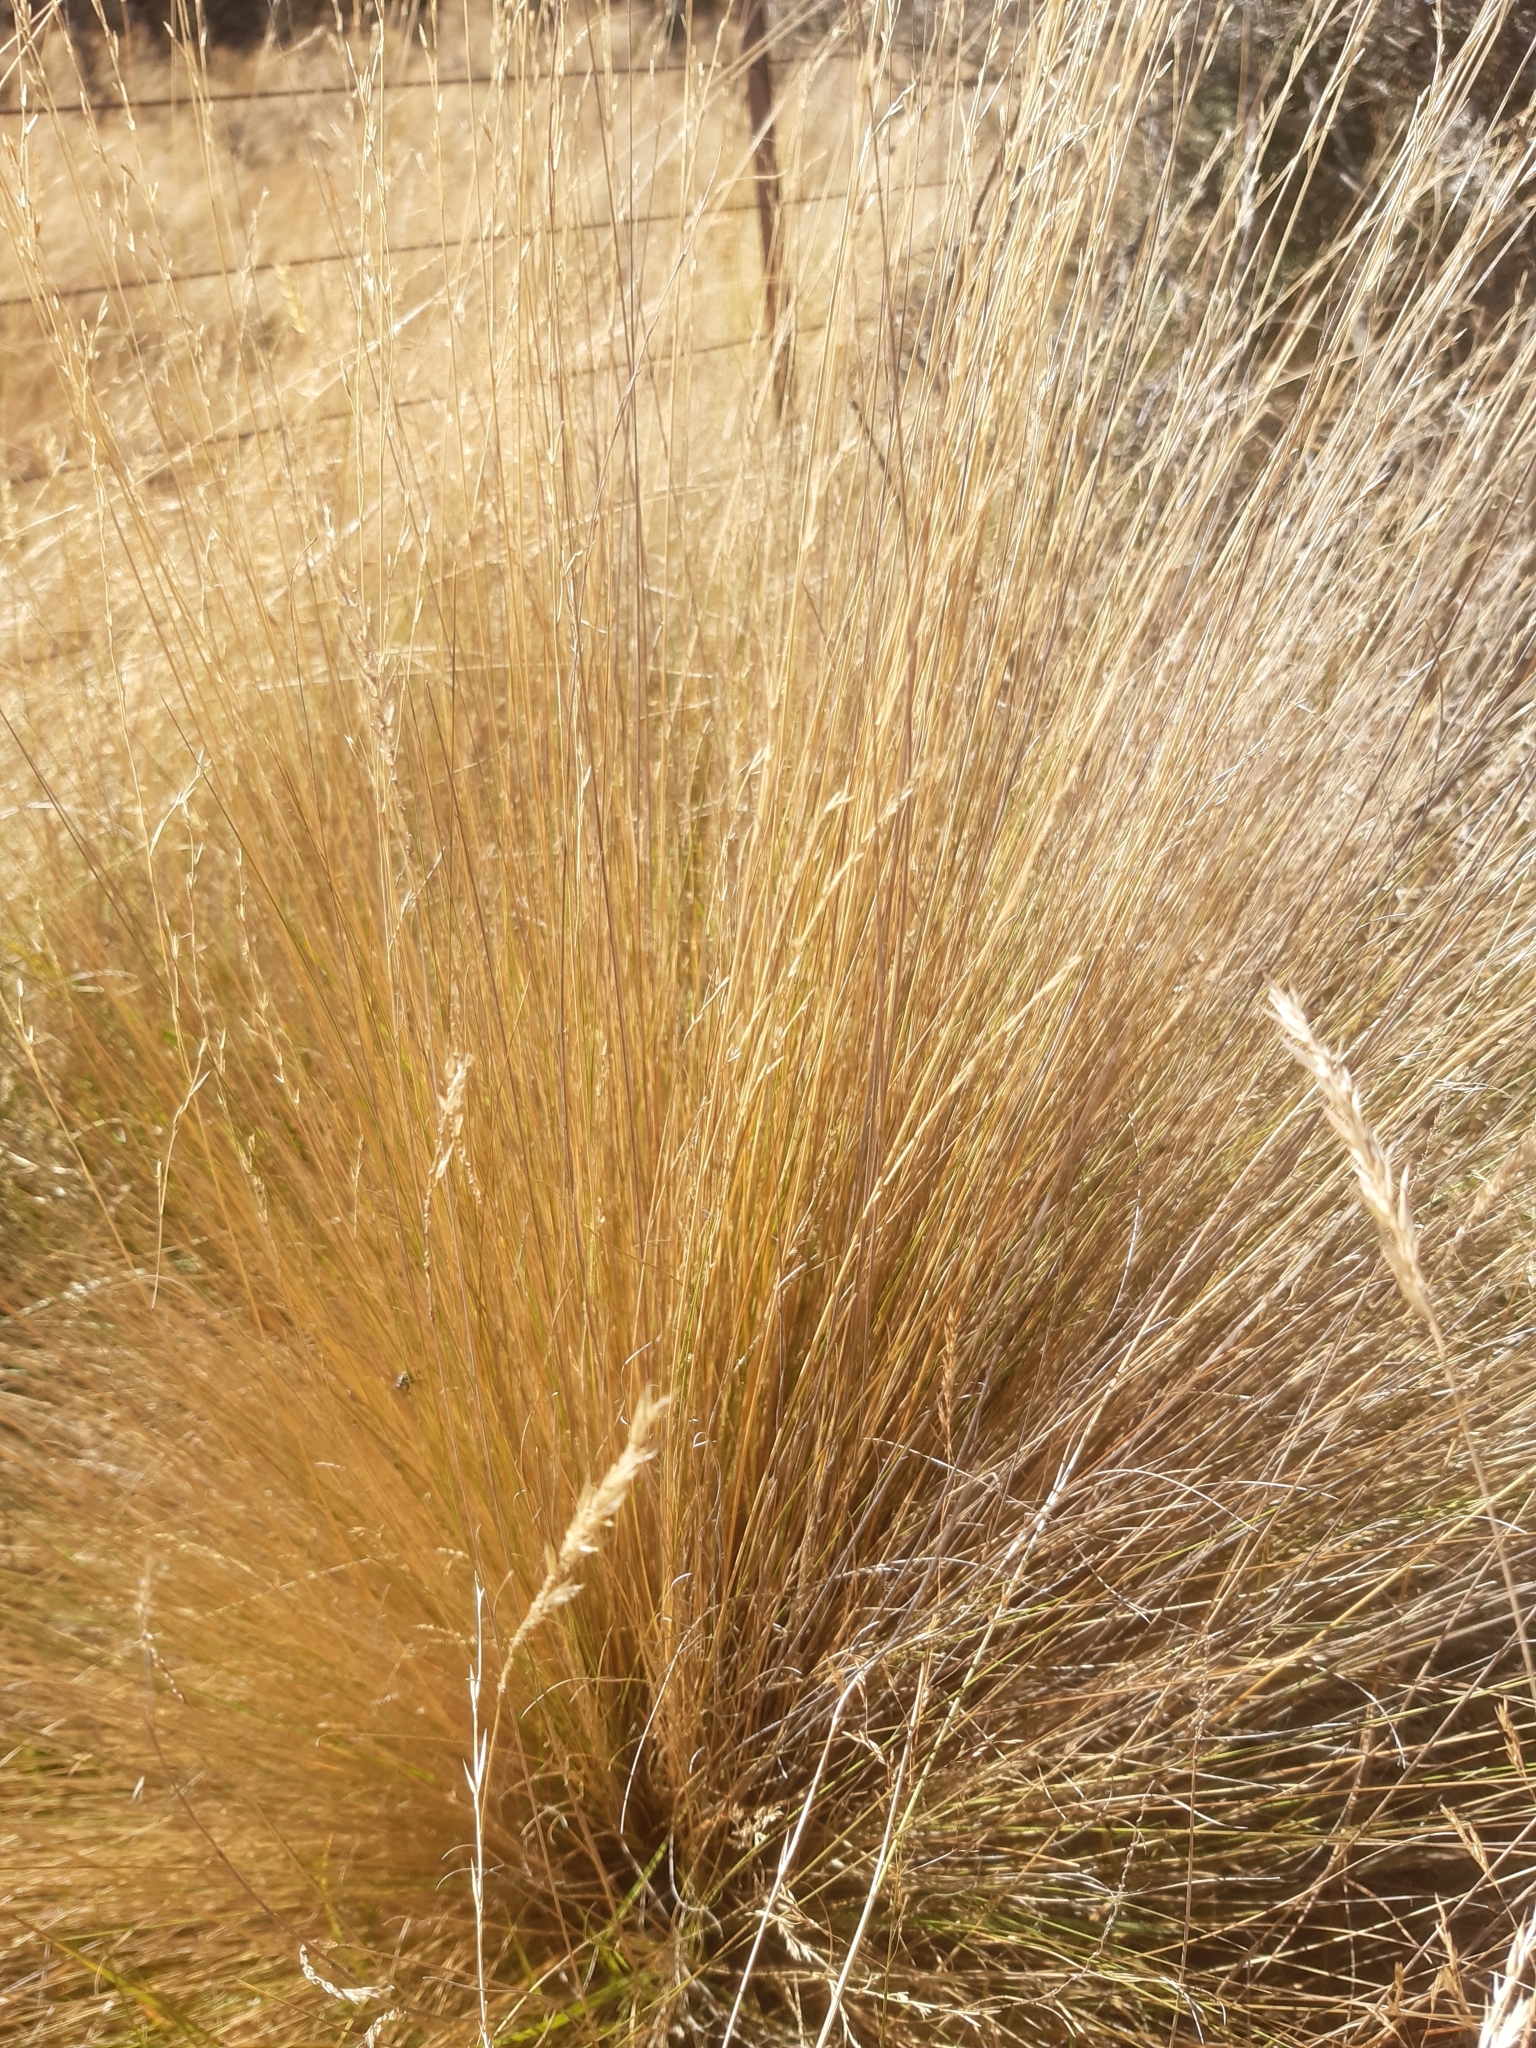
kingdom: Plantae
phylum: Tracheophyta
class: Liliopsida
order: Poales
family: Poaceae
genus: Festuca
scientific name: Festuca novae-zelandiae
